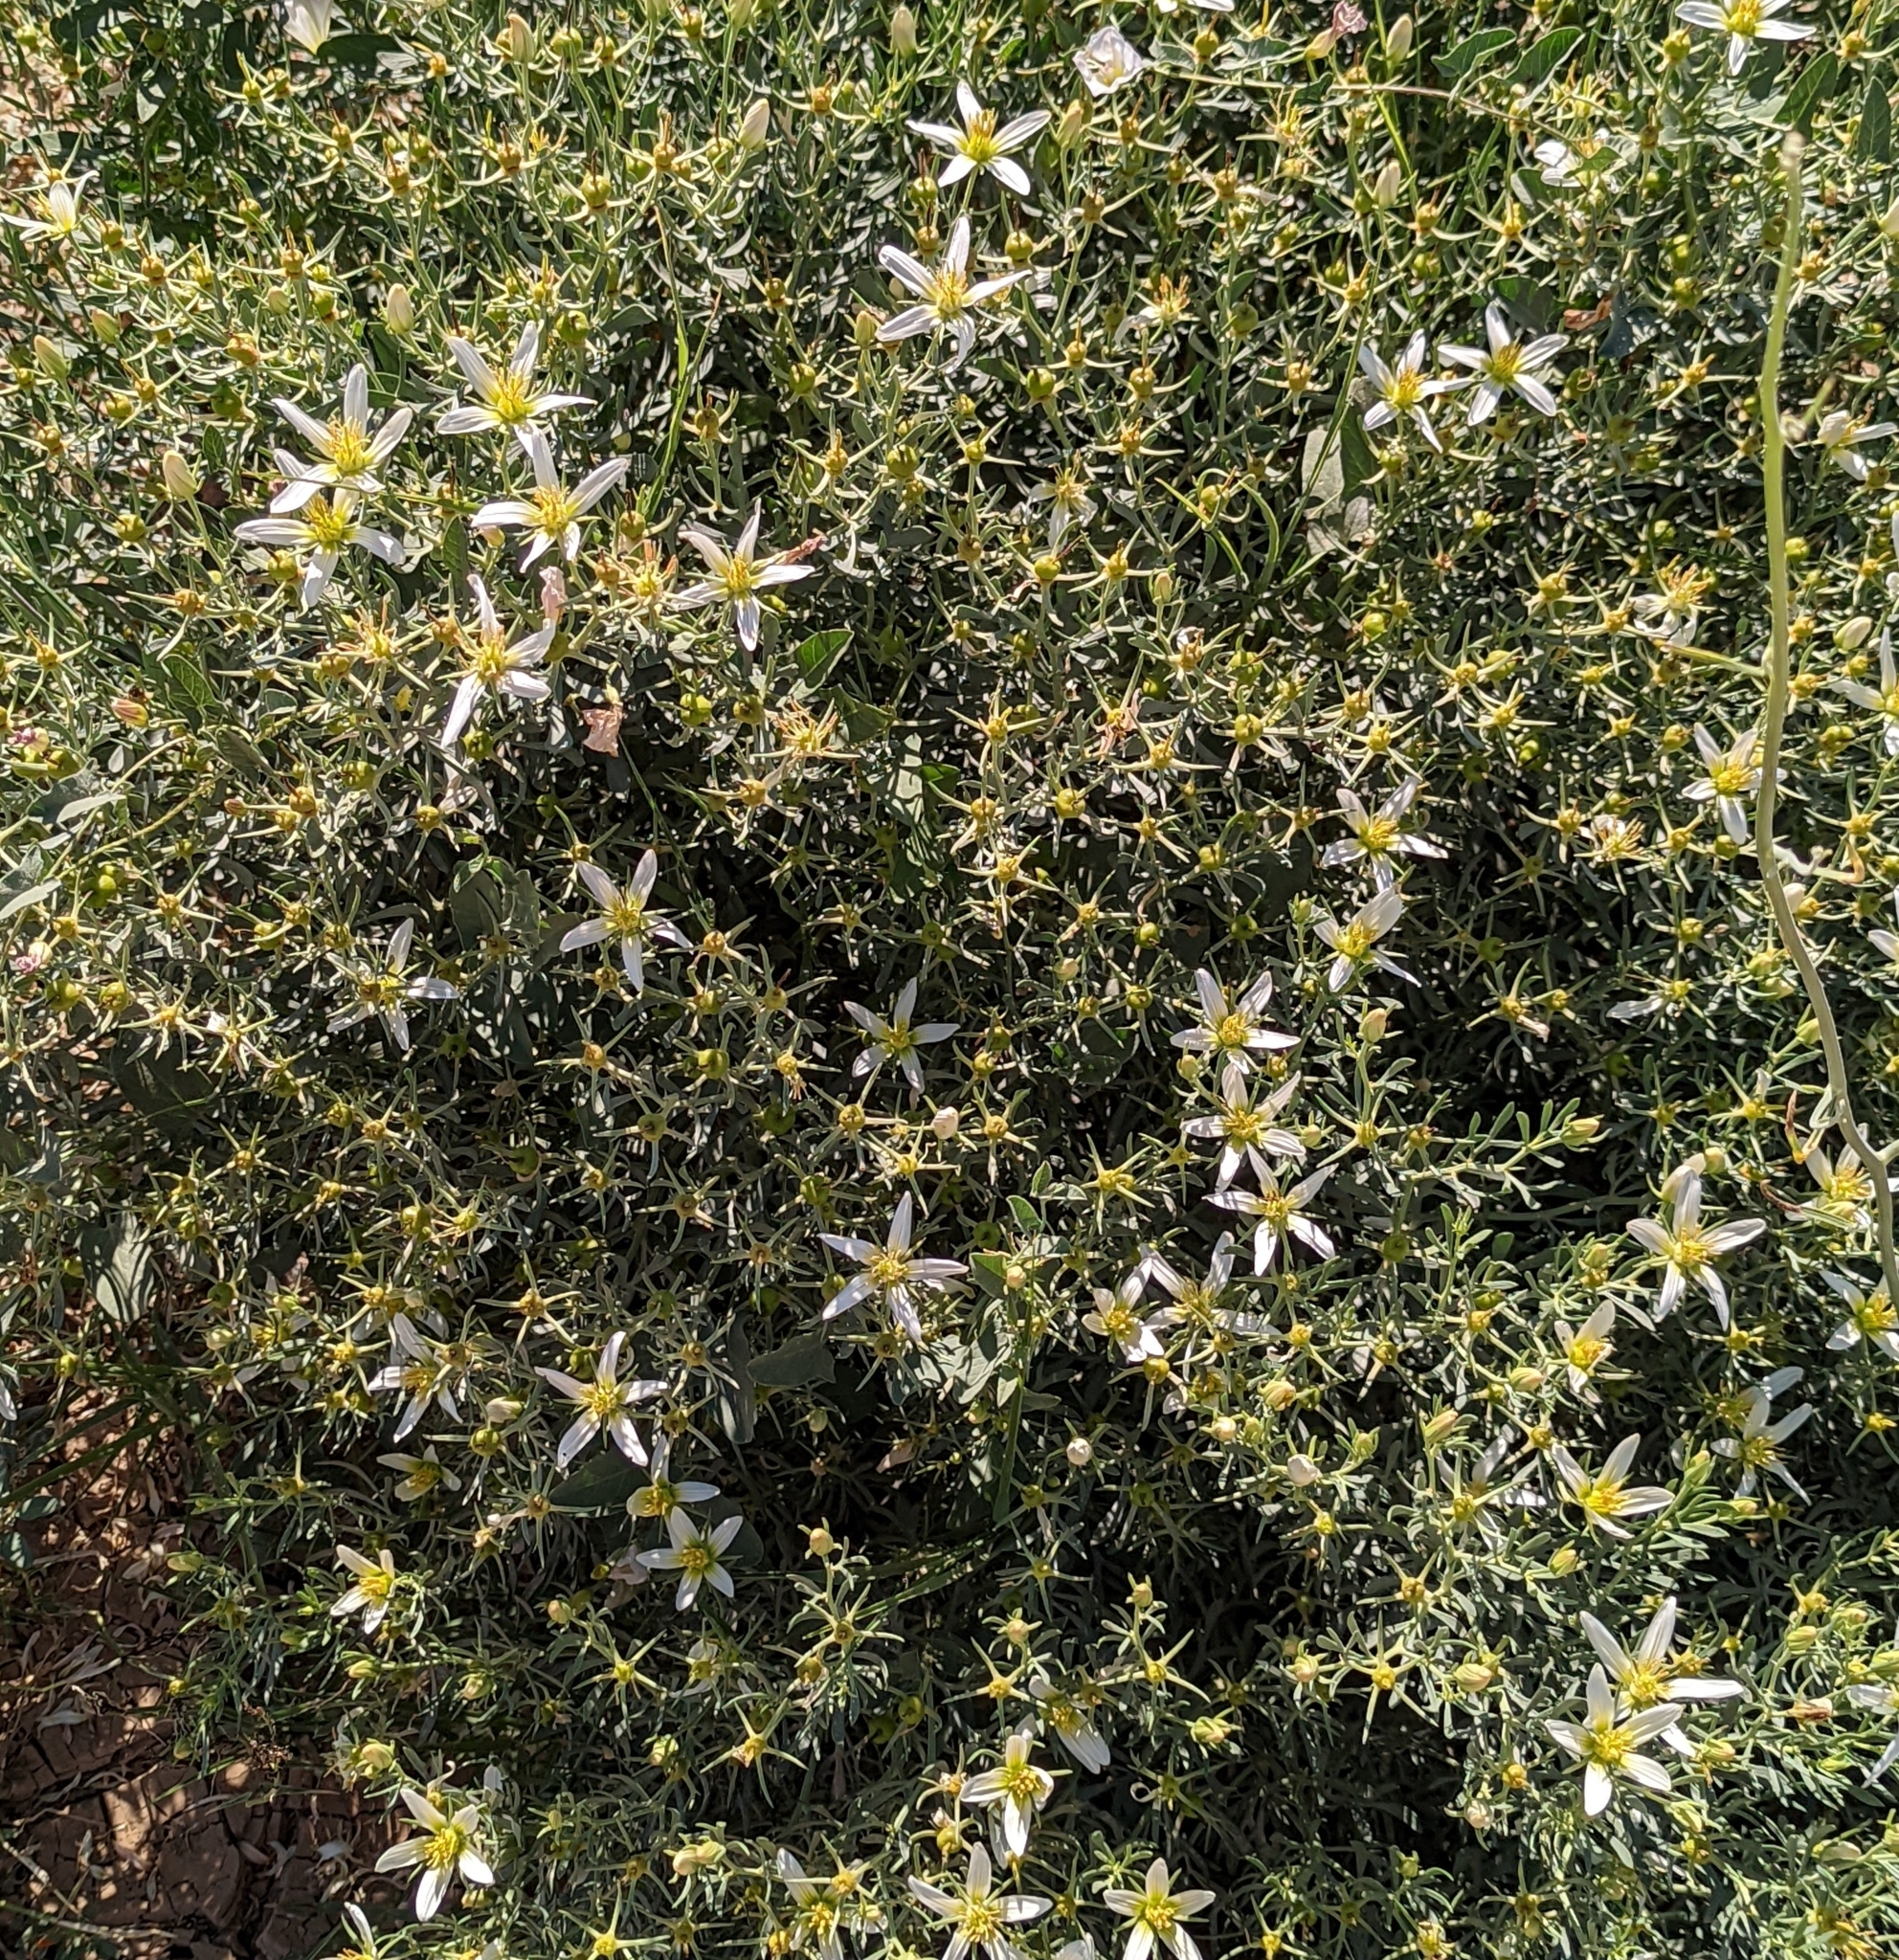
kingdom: Plantae
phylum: Tracheophyta
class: Magnoliopsida
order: Sapindales
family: Tetradiclidaceae
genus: Peganum
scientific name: Peganum harmala
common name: Harmal peganum
